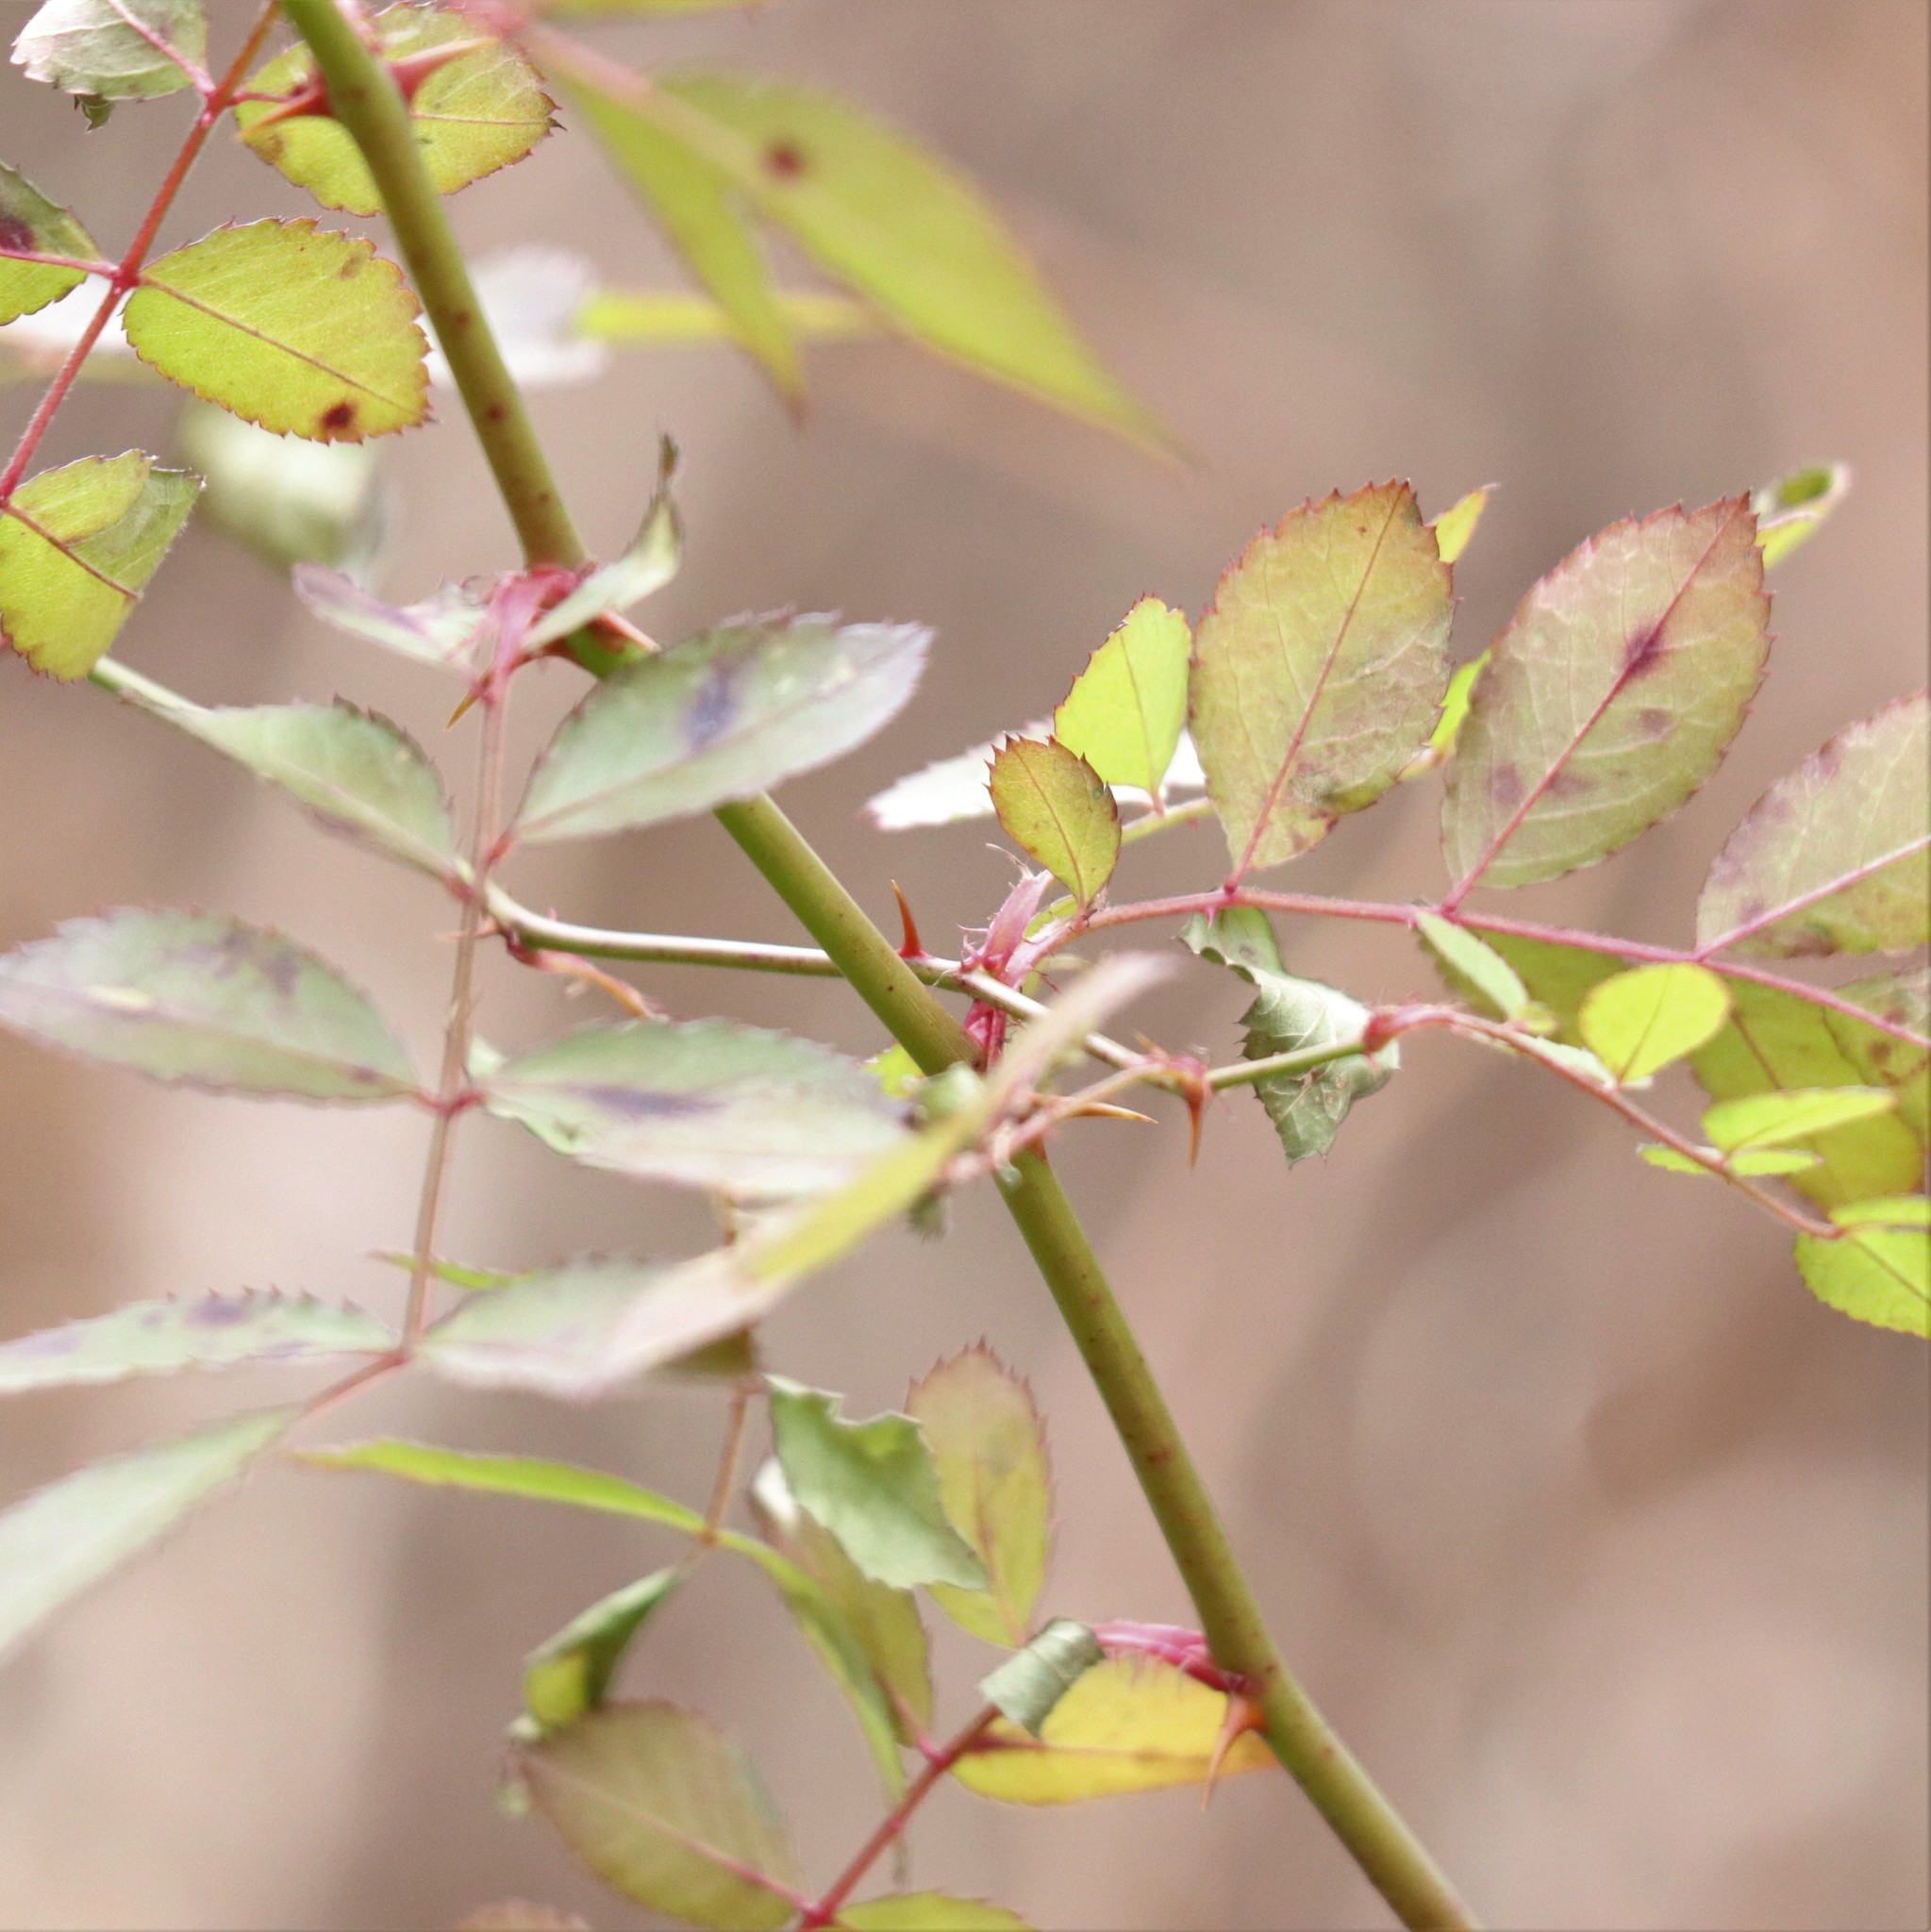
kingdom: Plantae
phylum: Tracheophyta
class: Magnoliopsida
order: Rosales
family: Rosaceae
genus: Rosa
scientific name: Rosa multiflora
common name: Multiflora rose
